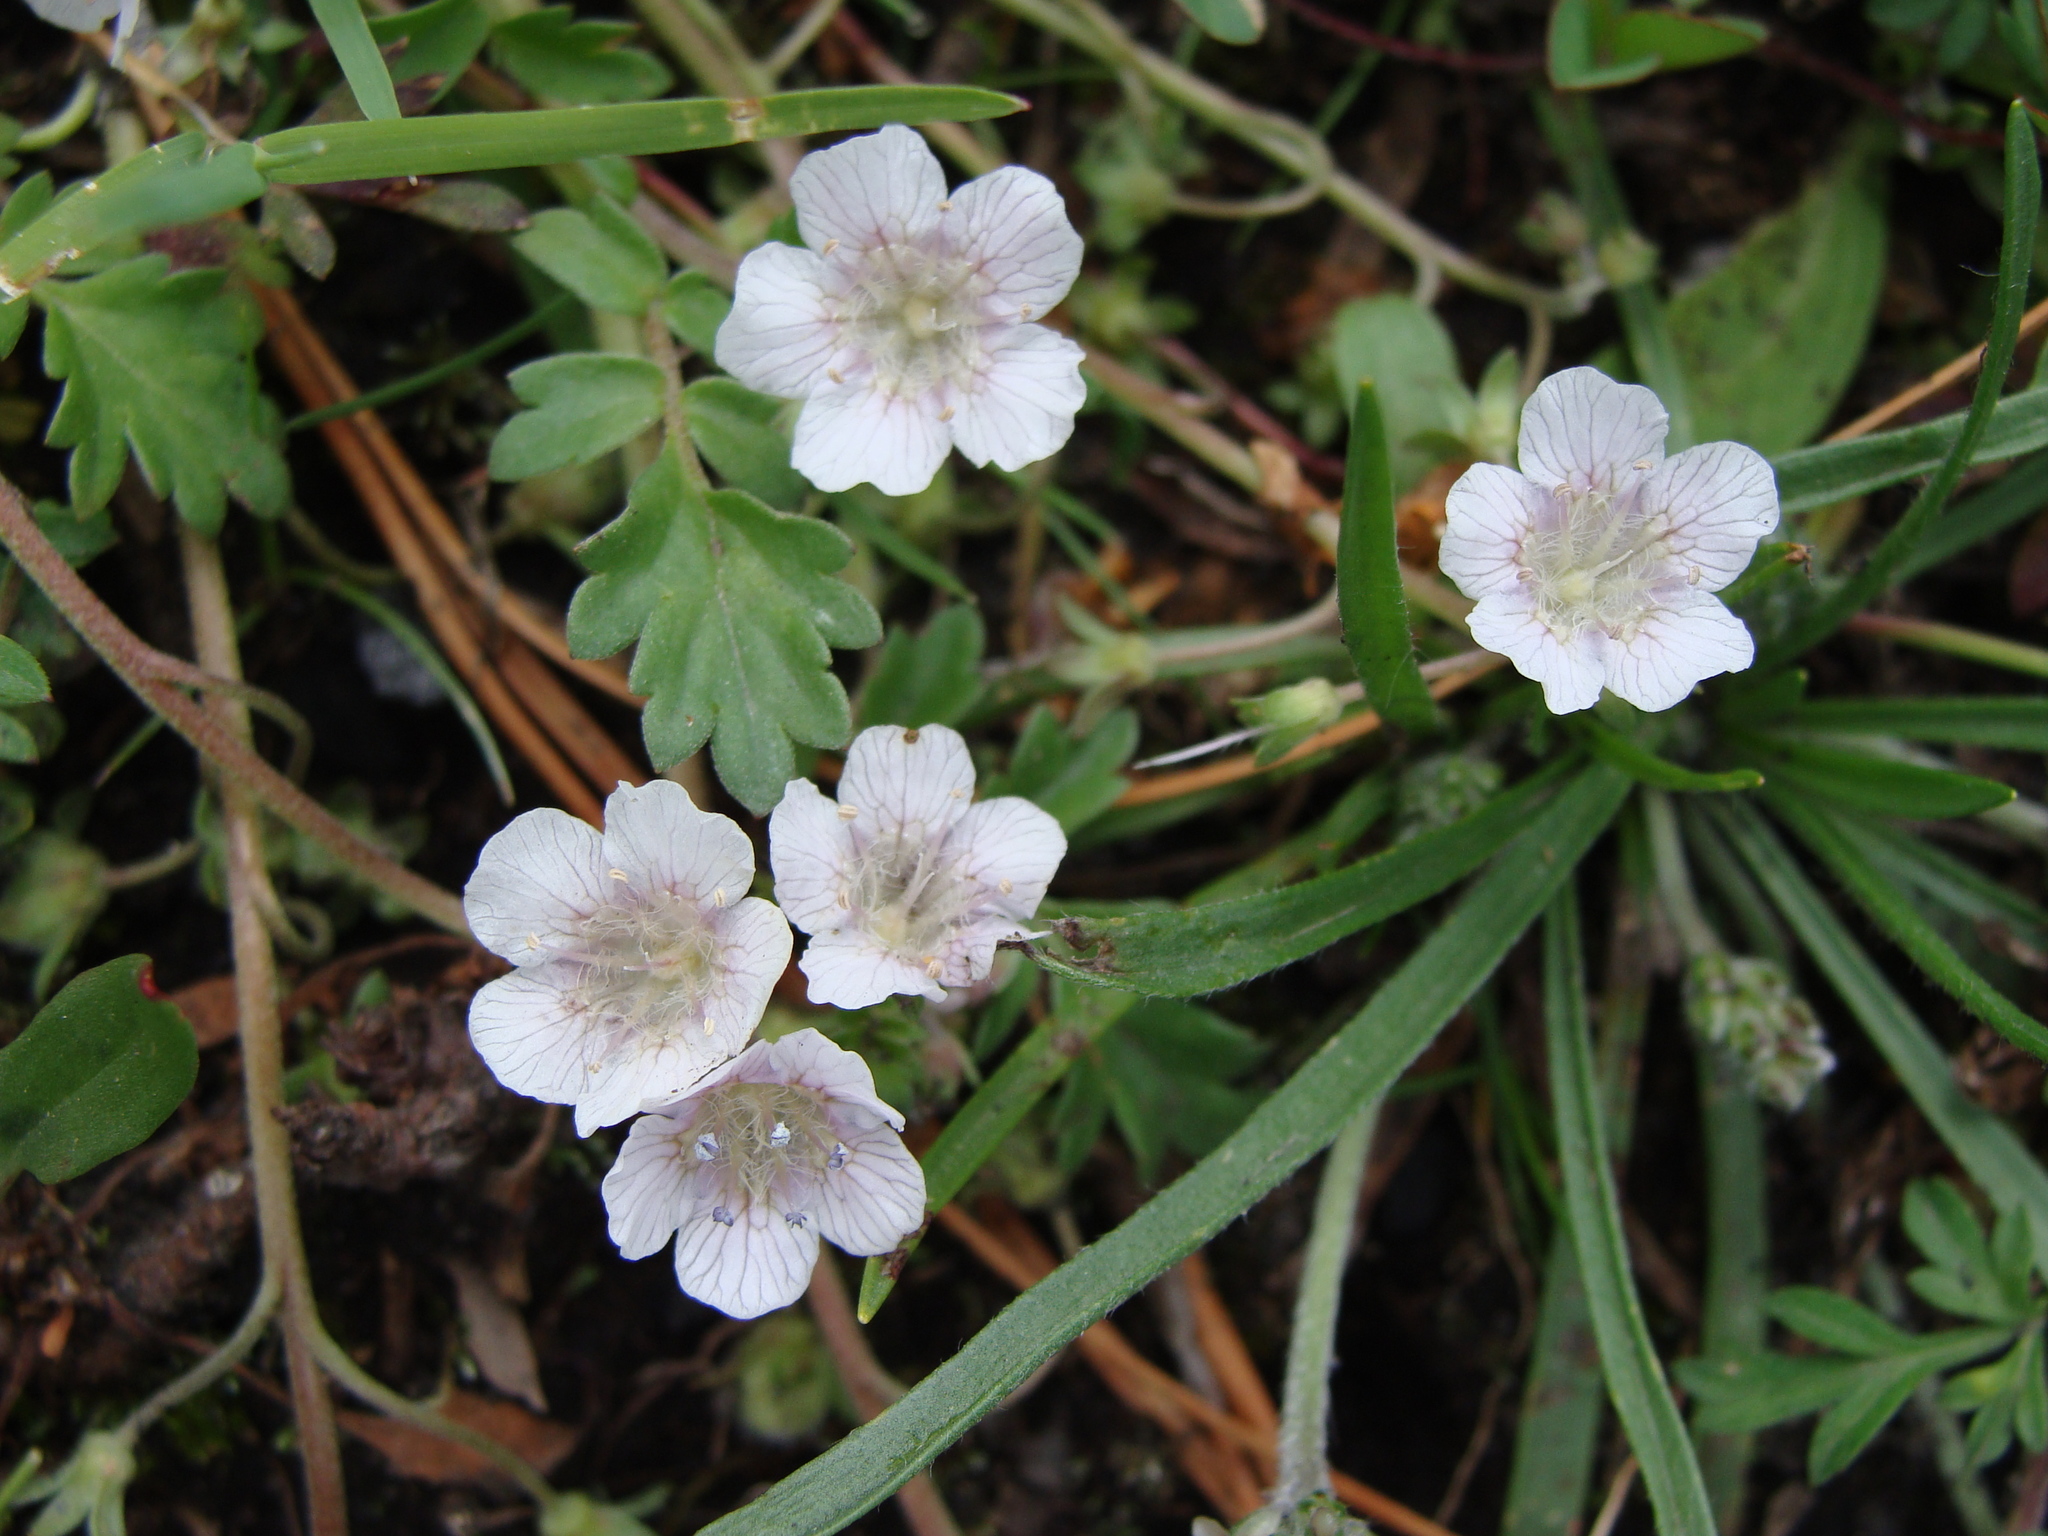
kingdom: Plantae
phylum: Tracheophyta
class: Magnoliopsida
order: Boraginales
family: Hydrophyllaceae
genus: Phacelia
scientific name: Phacelia platycarpa
